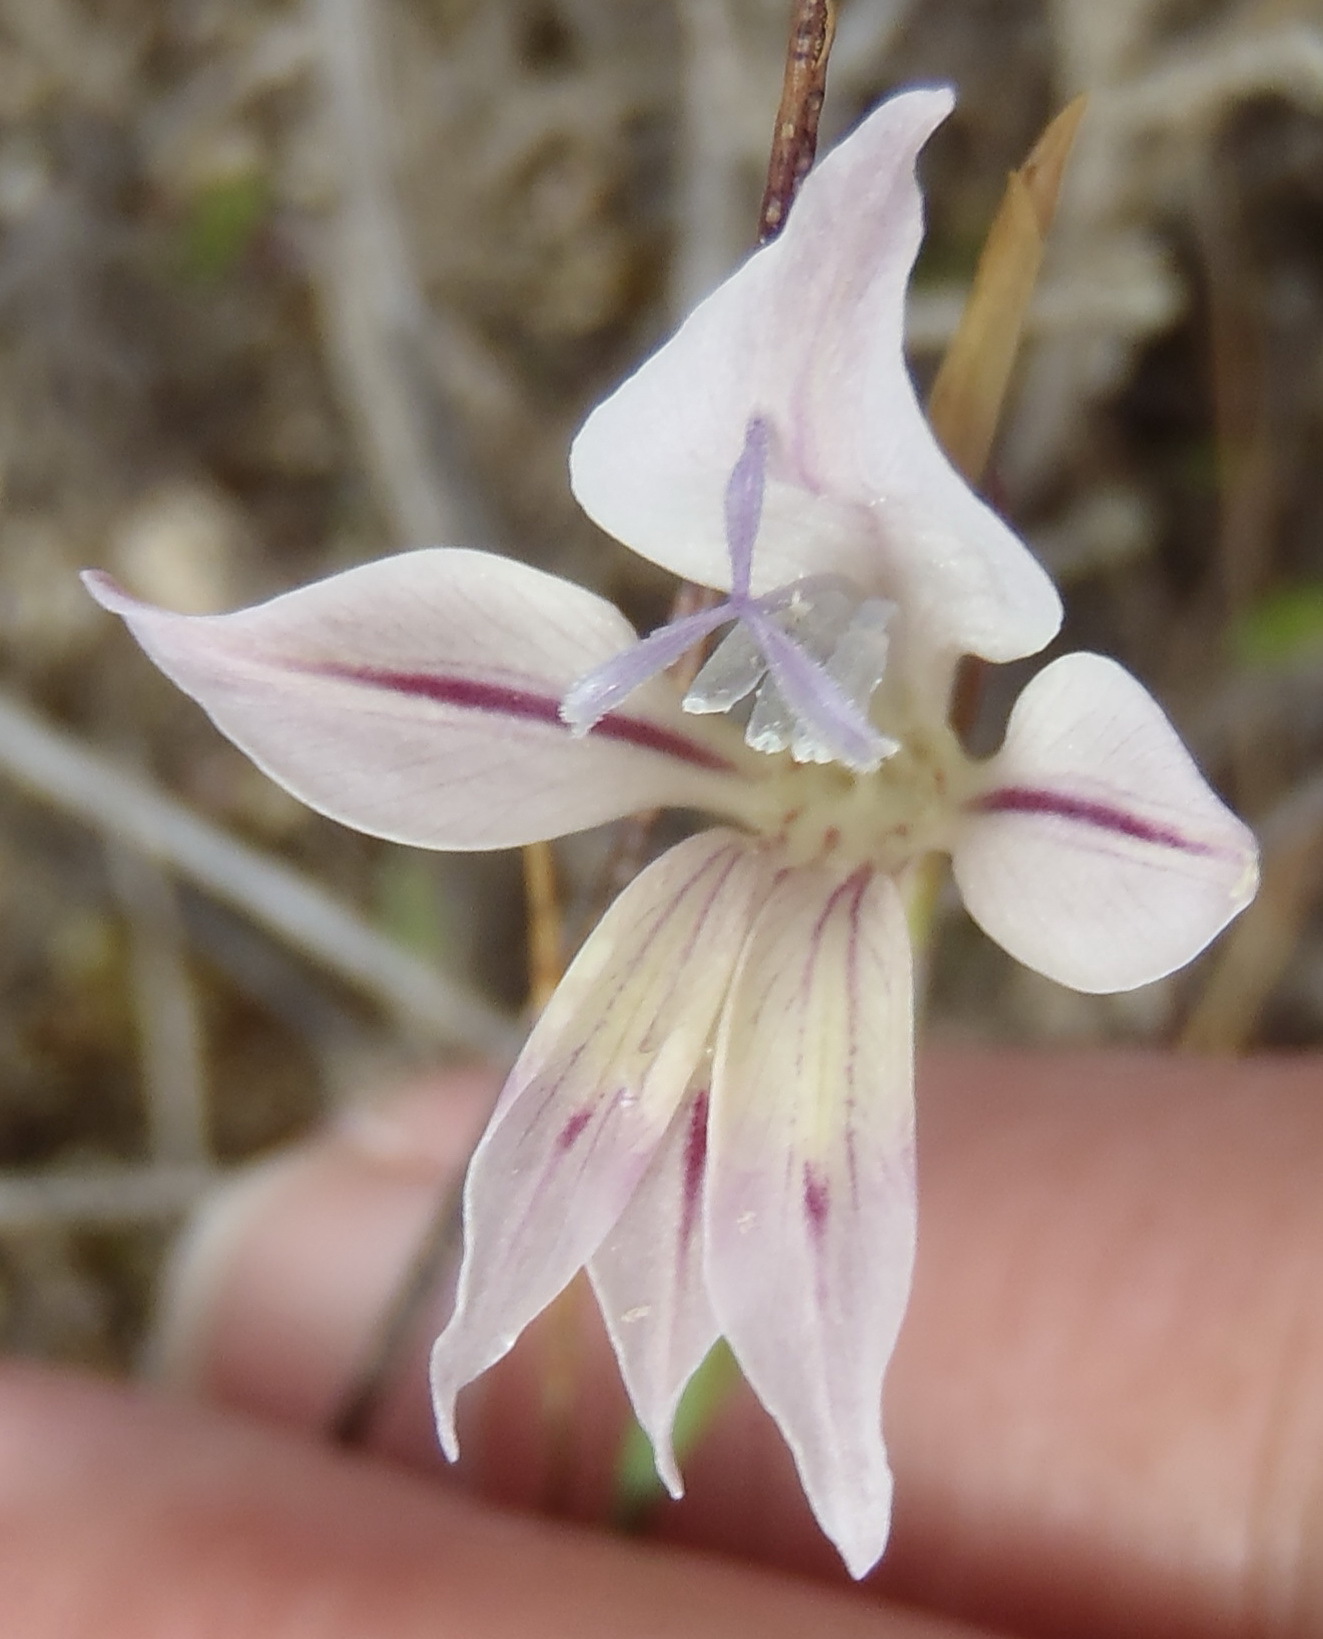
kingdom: Plantae
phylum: Tracheophyta
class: Liliopsida
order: Asparagales
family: Iridaceae
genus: Gladiolus
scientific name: Gladiolus permeabilis
